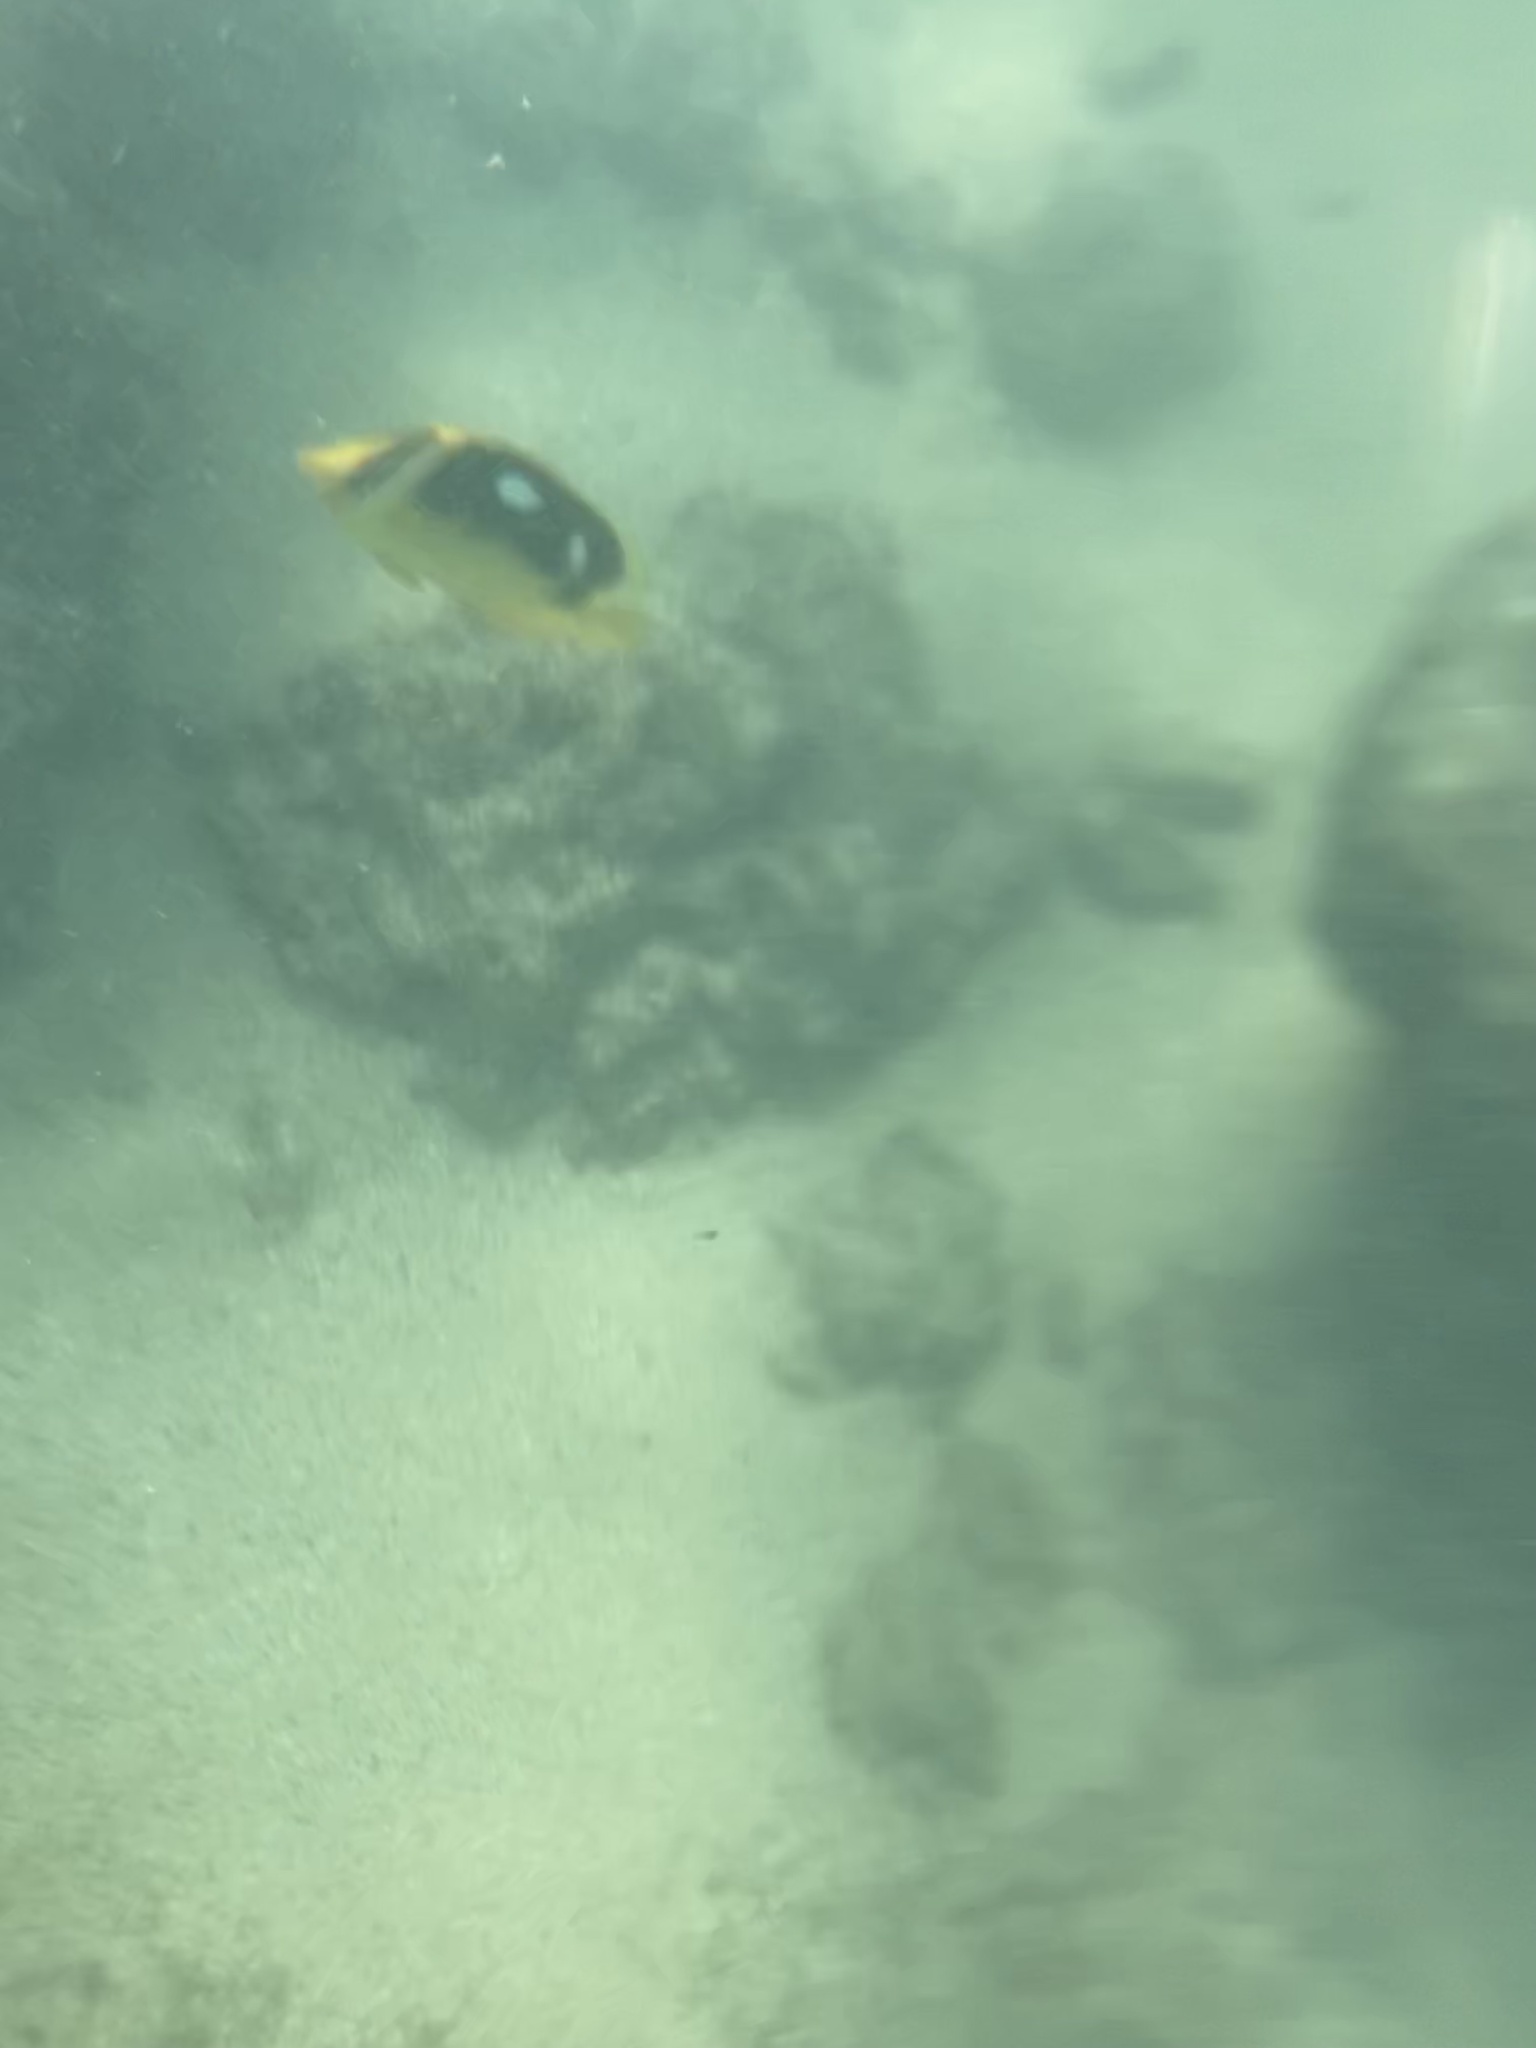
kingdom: Animalia
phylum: Chordata
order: Perciformes
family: Chaetodontidae
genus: Chaetodon
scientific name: Chaetodon quadrimaculatus
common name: Fourspot butterflyfish
